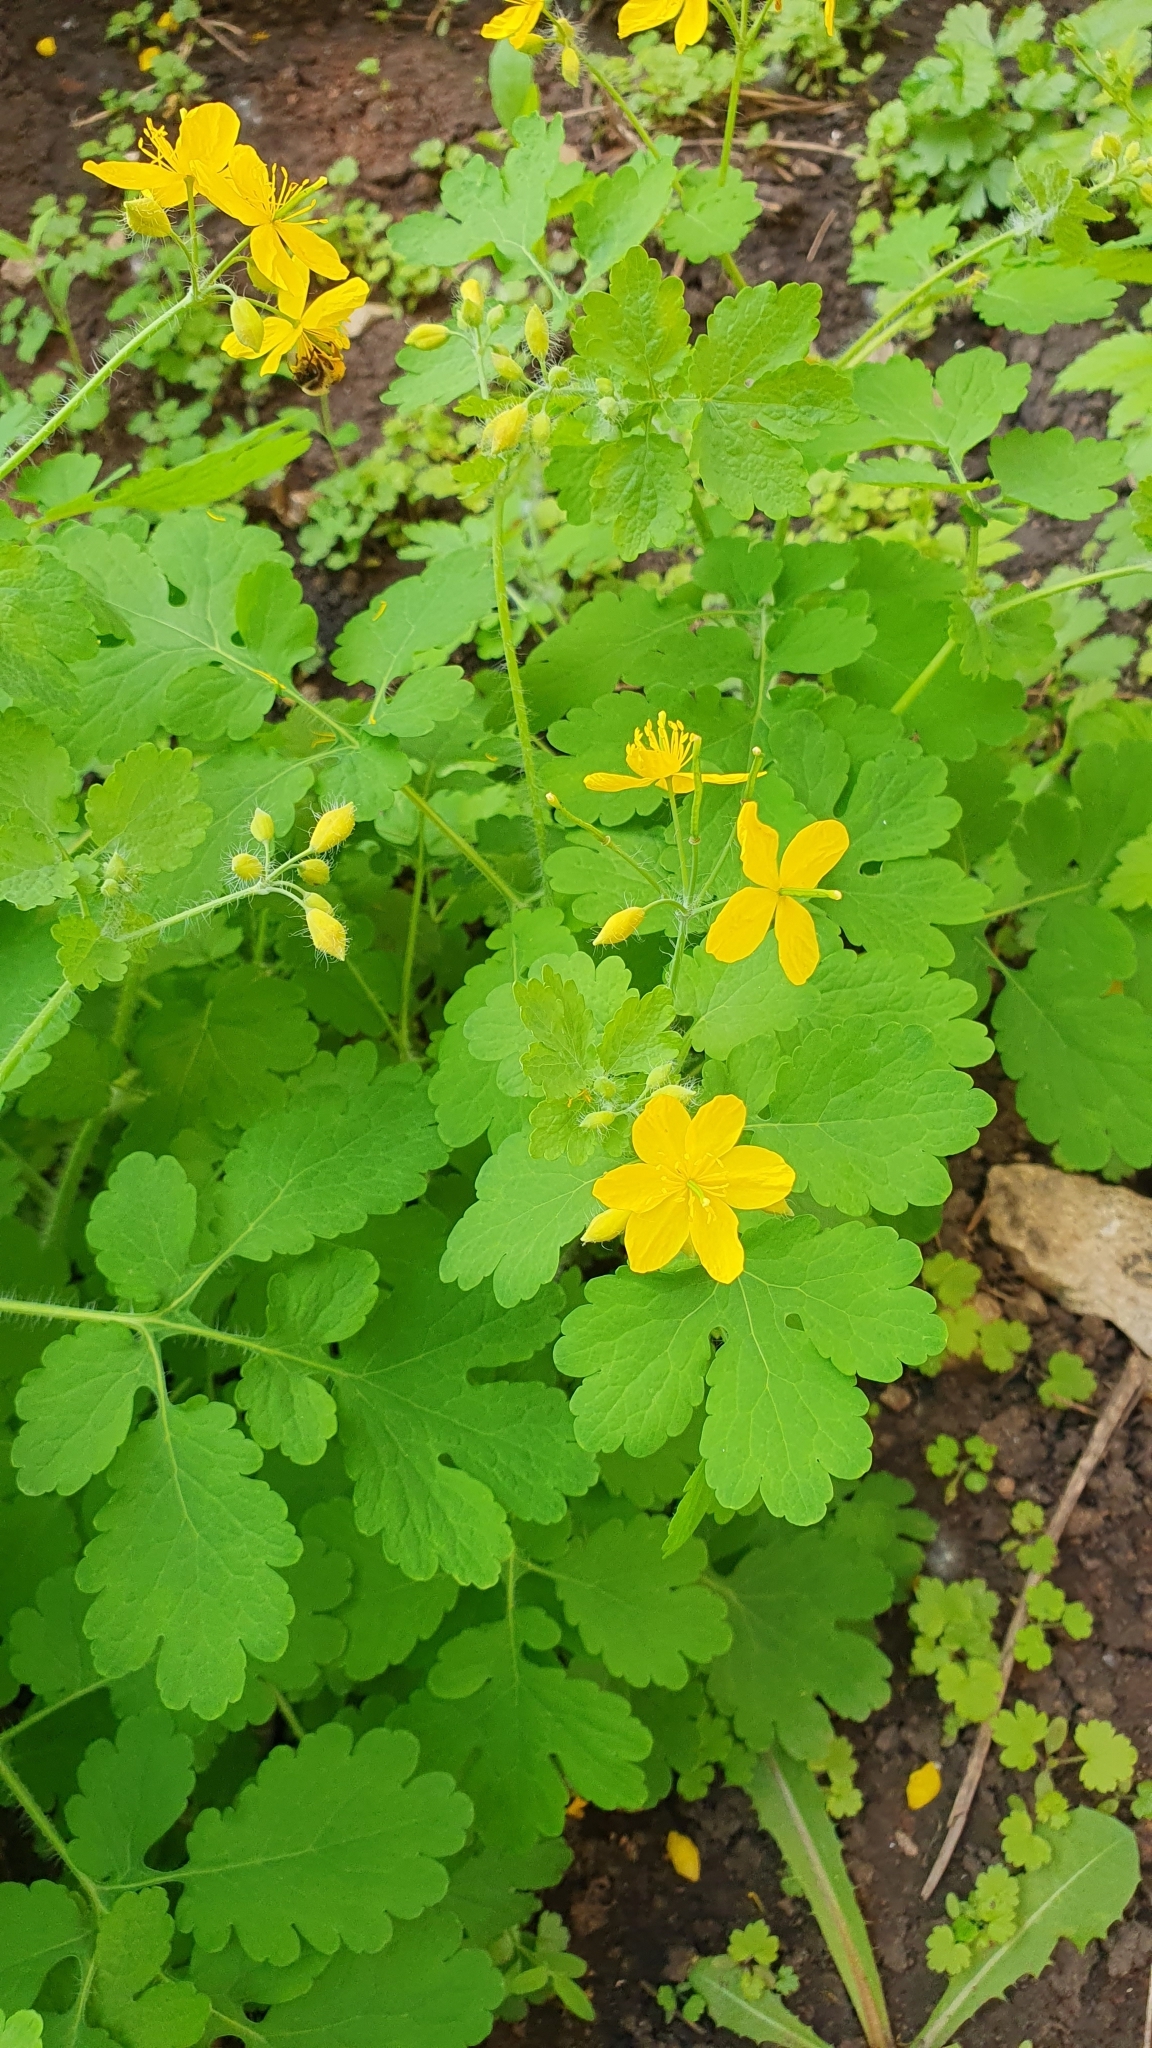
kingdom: Plantae
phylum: Tracheophyta
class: Magnoliopsida
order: Ranunculales
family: Papaveraceae
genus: Chelidonium
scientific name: Chelidonium majus
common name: Greater celandine
